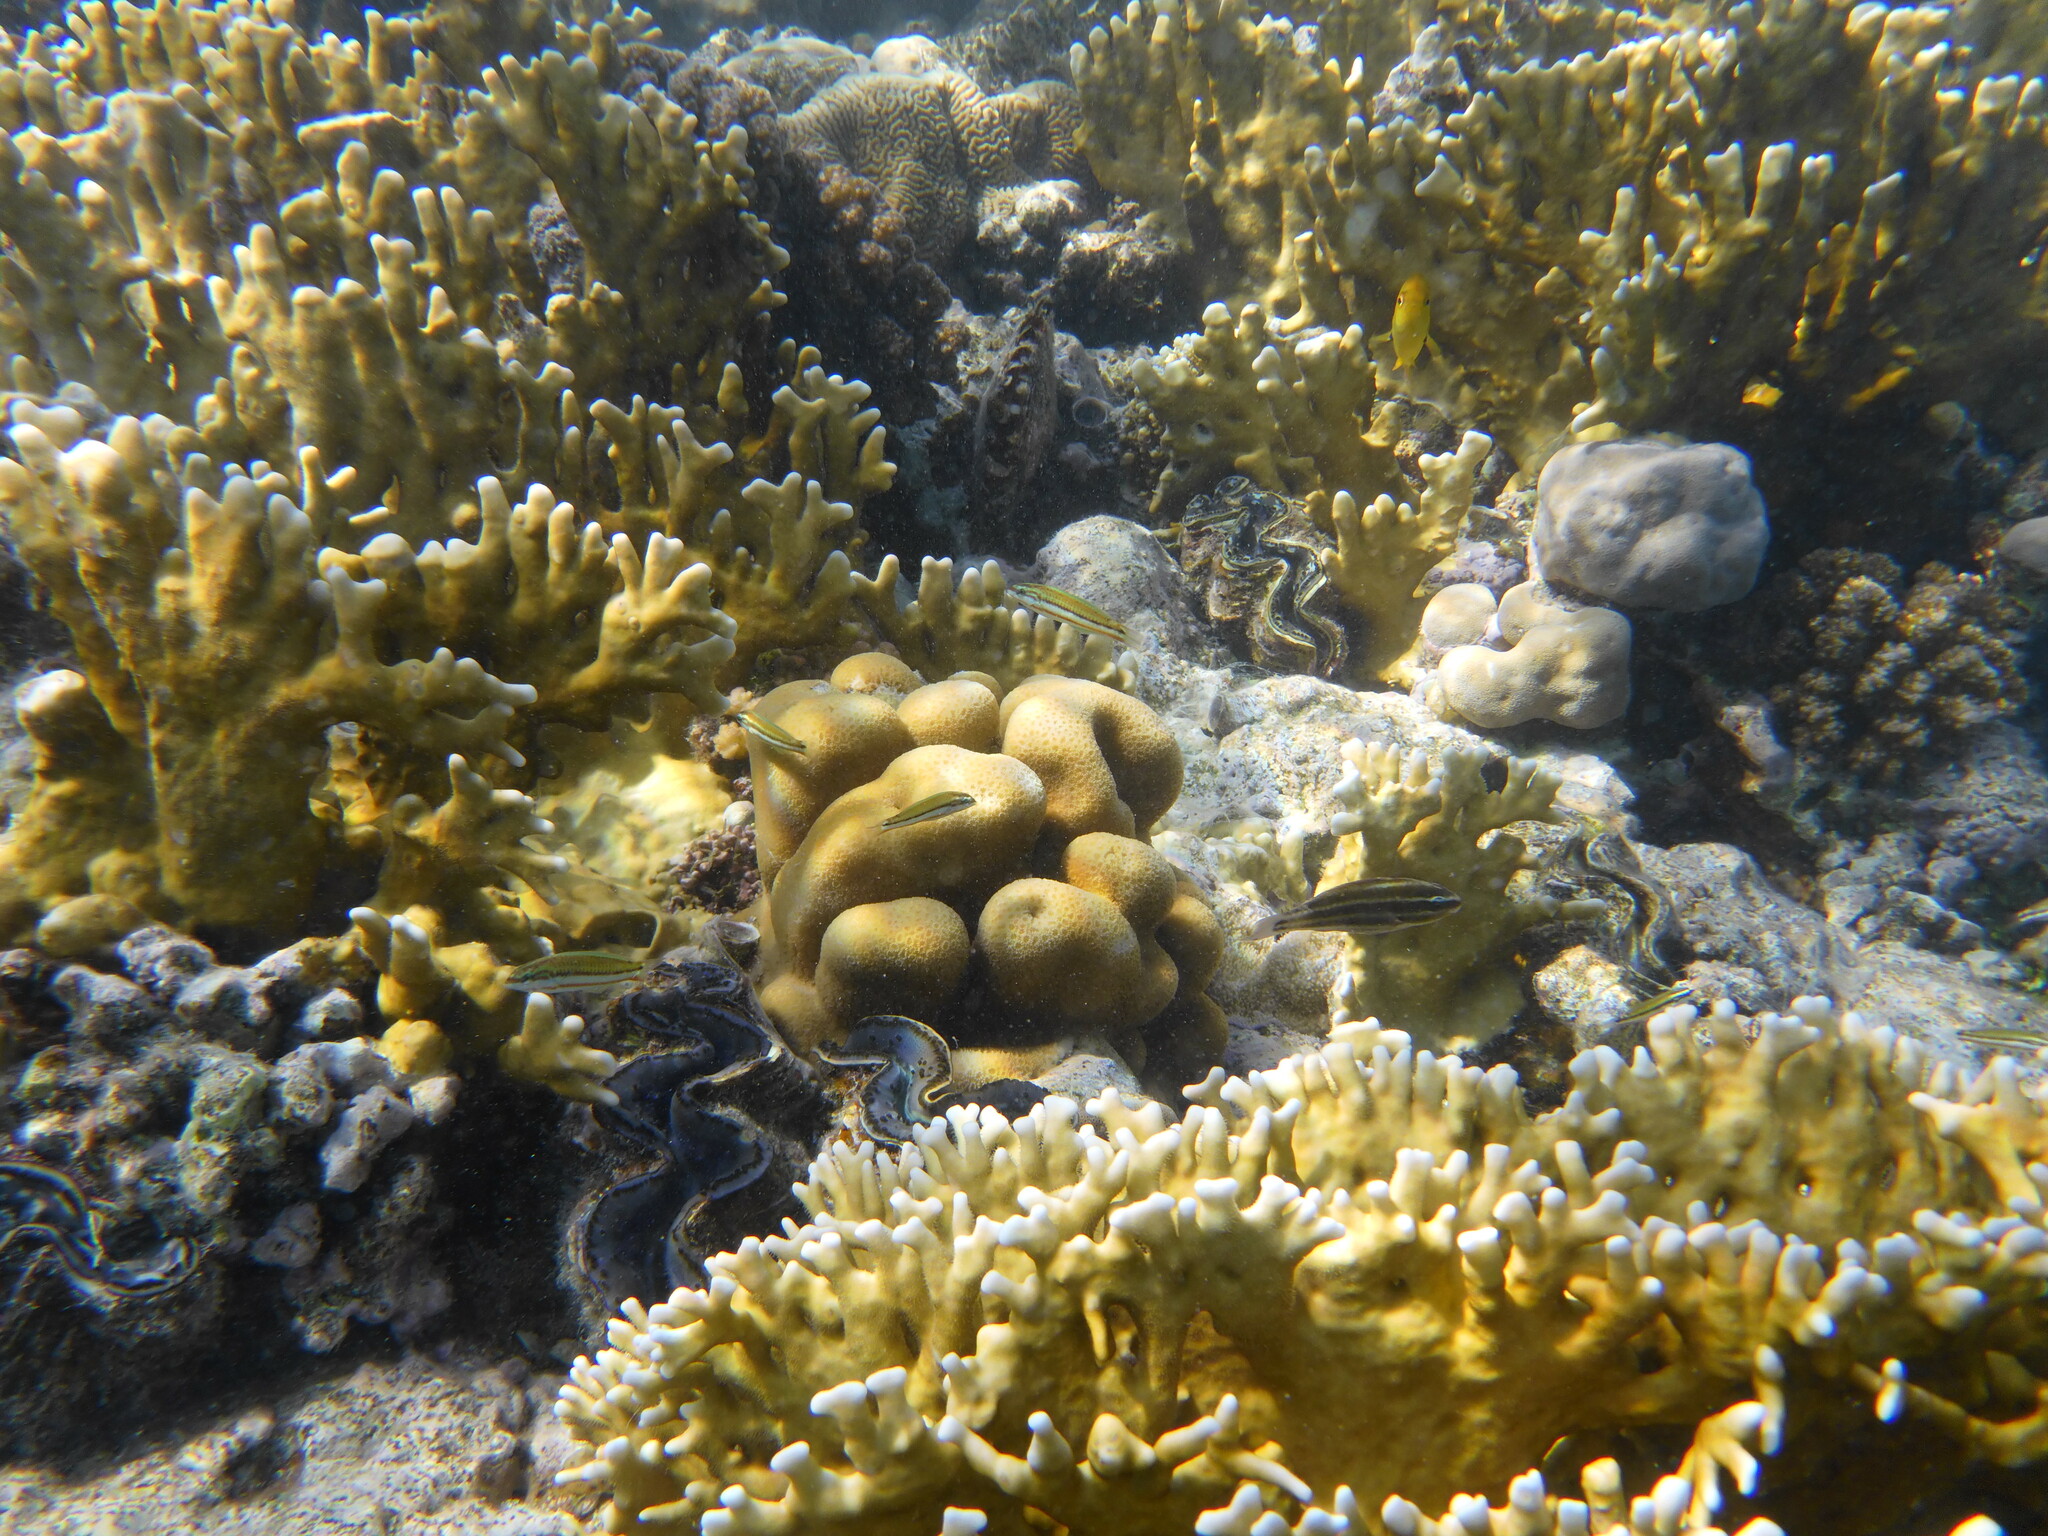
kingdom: Animalia
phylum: Chordata
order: Perciformes
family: Labridae
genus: Thalassoma
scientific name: Thalassoma rueppellii
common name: Klunzinger's wrasse
